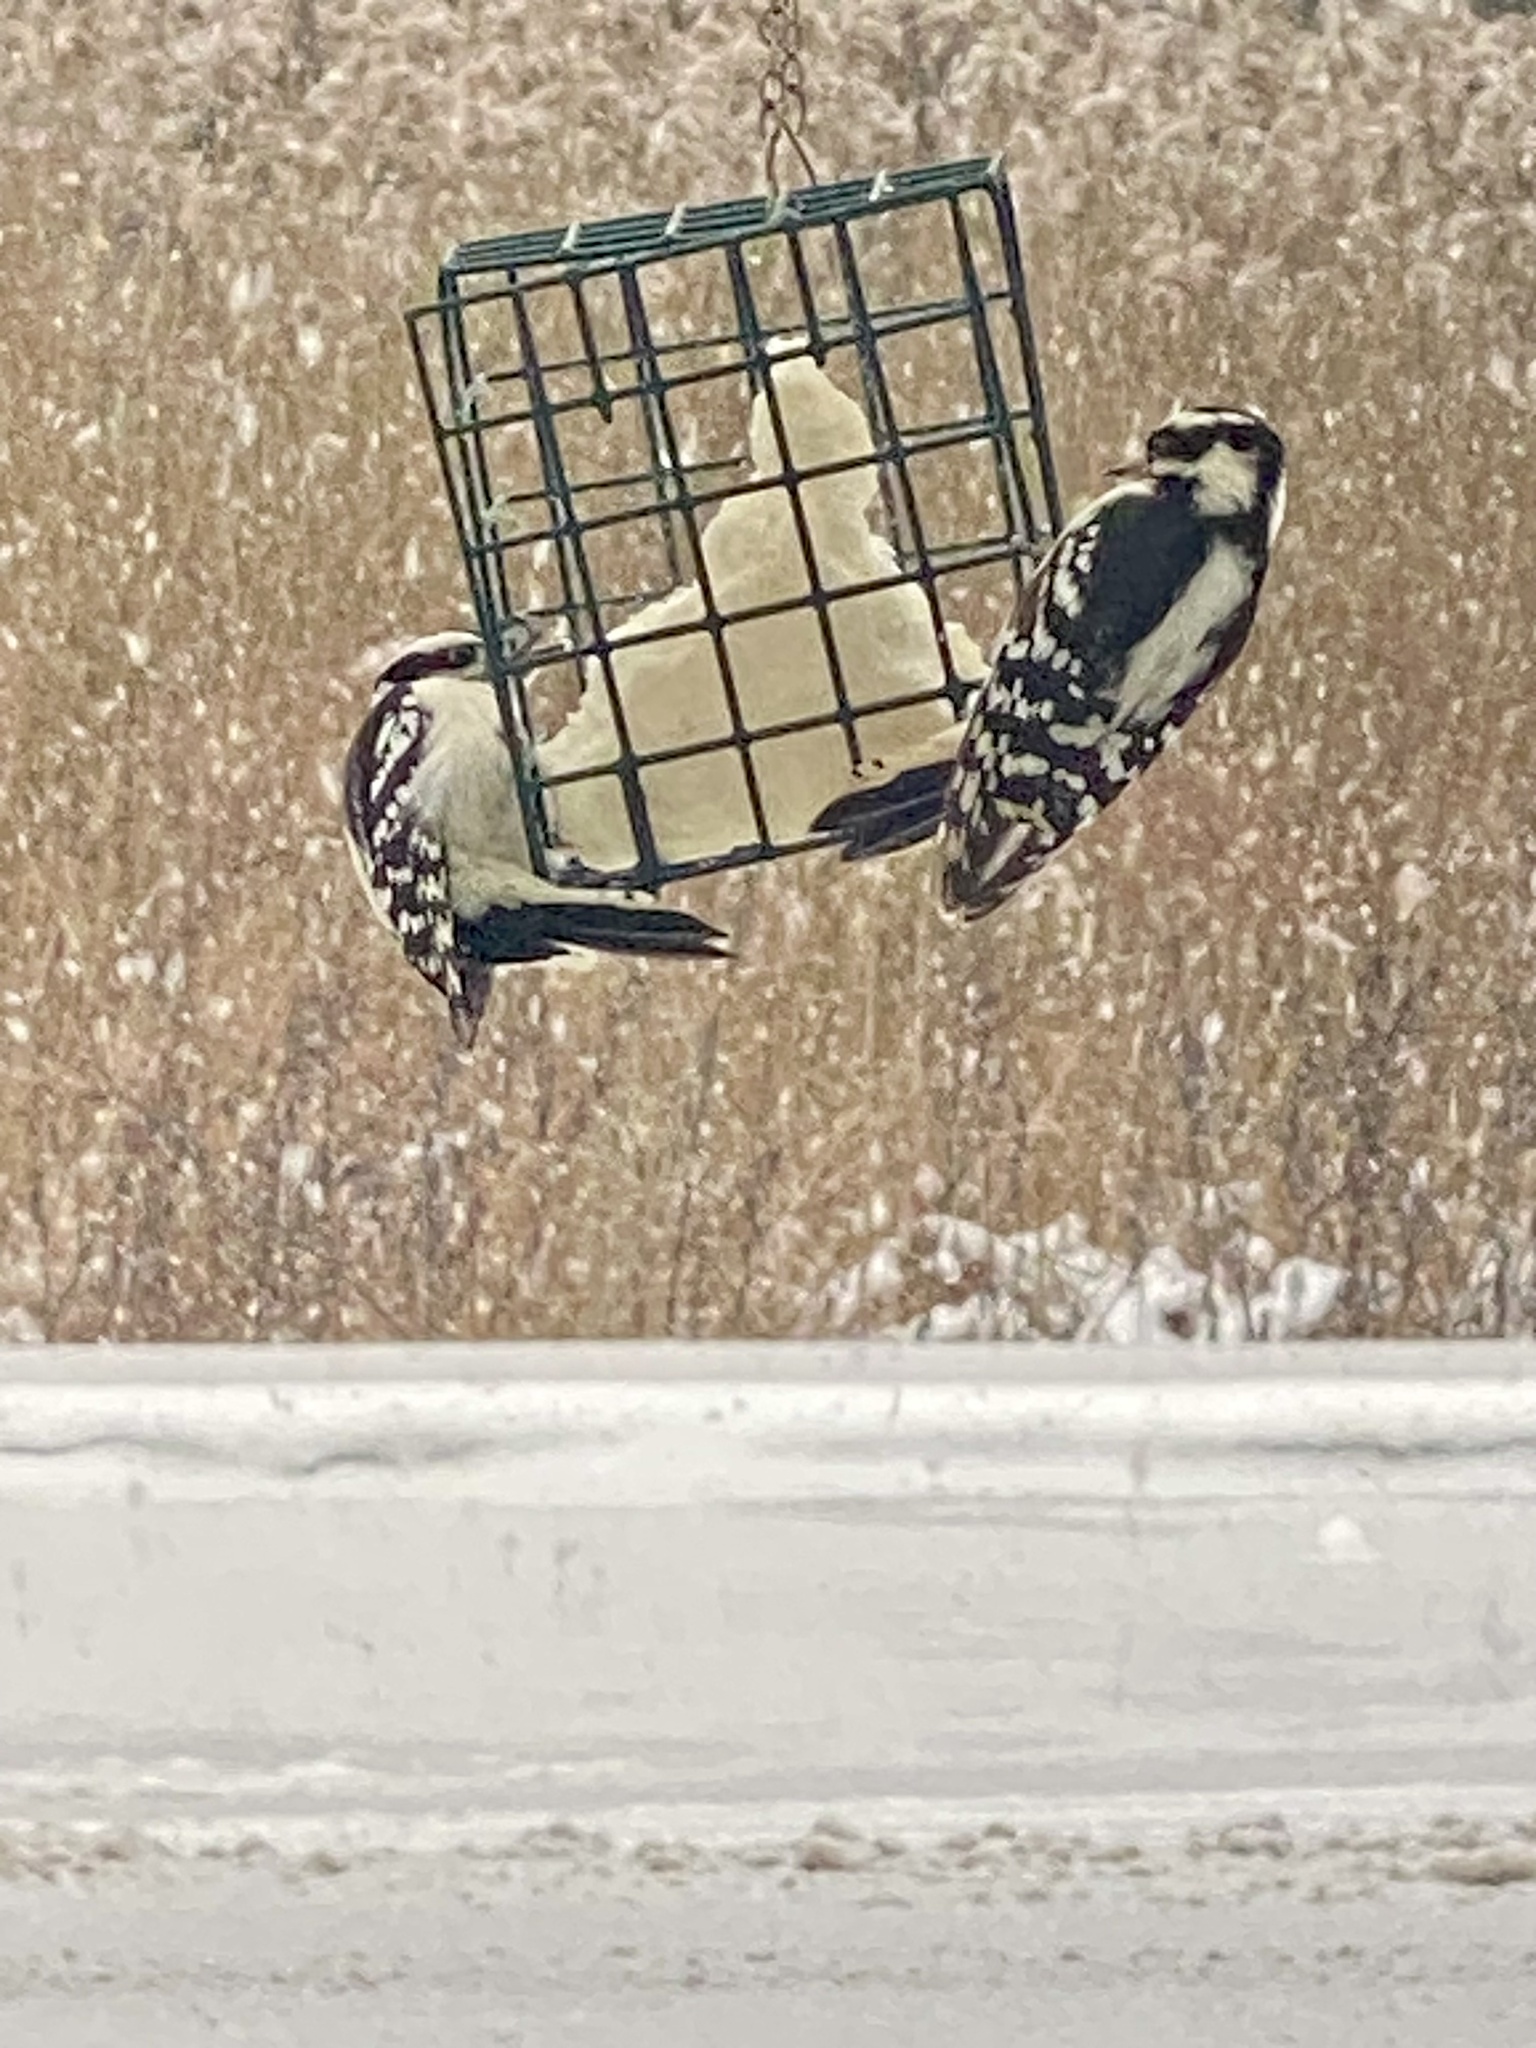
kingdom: Animalia
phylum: Chordata
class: Aves
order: Piciformes
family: Picidae
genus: Dryobates
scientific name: Dryobates pubescens
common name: Downy woodpecker
